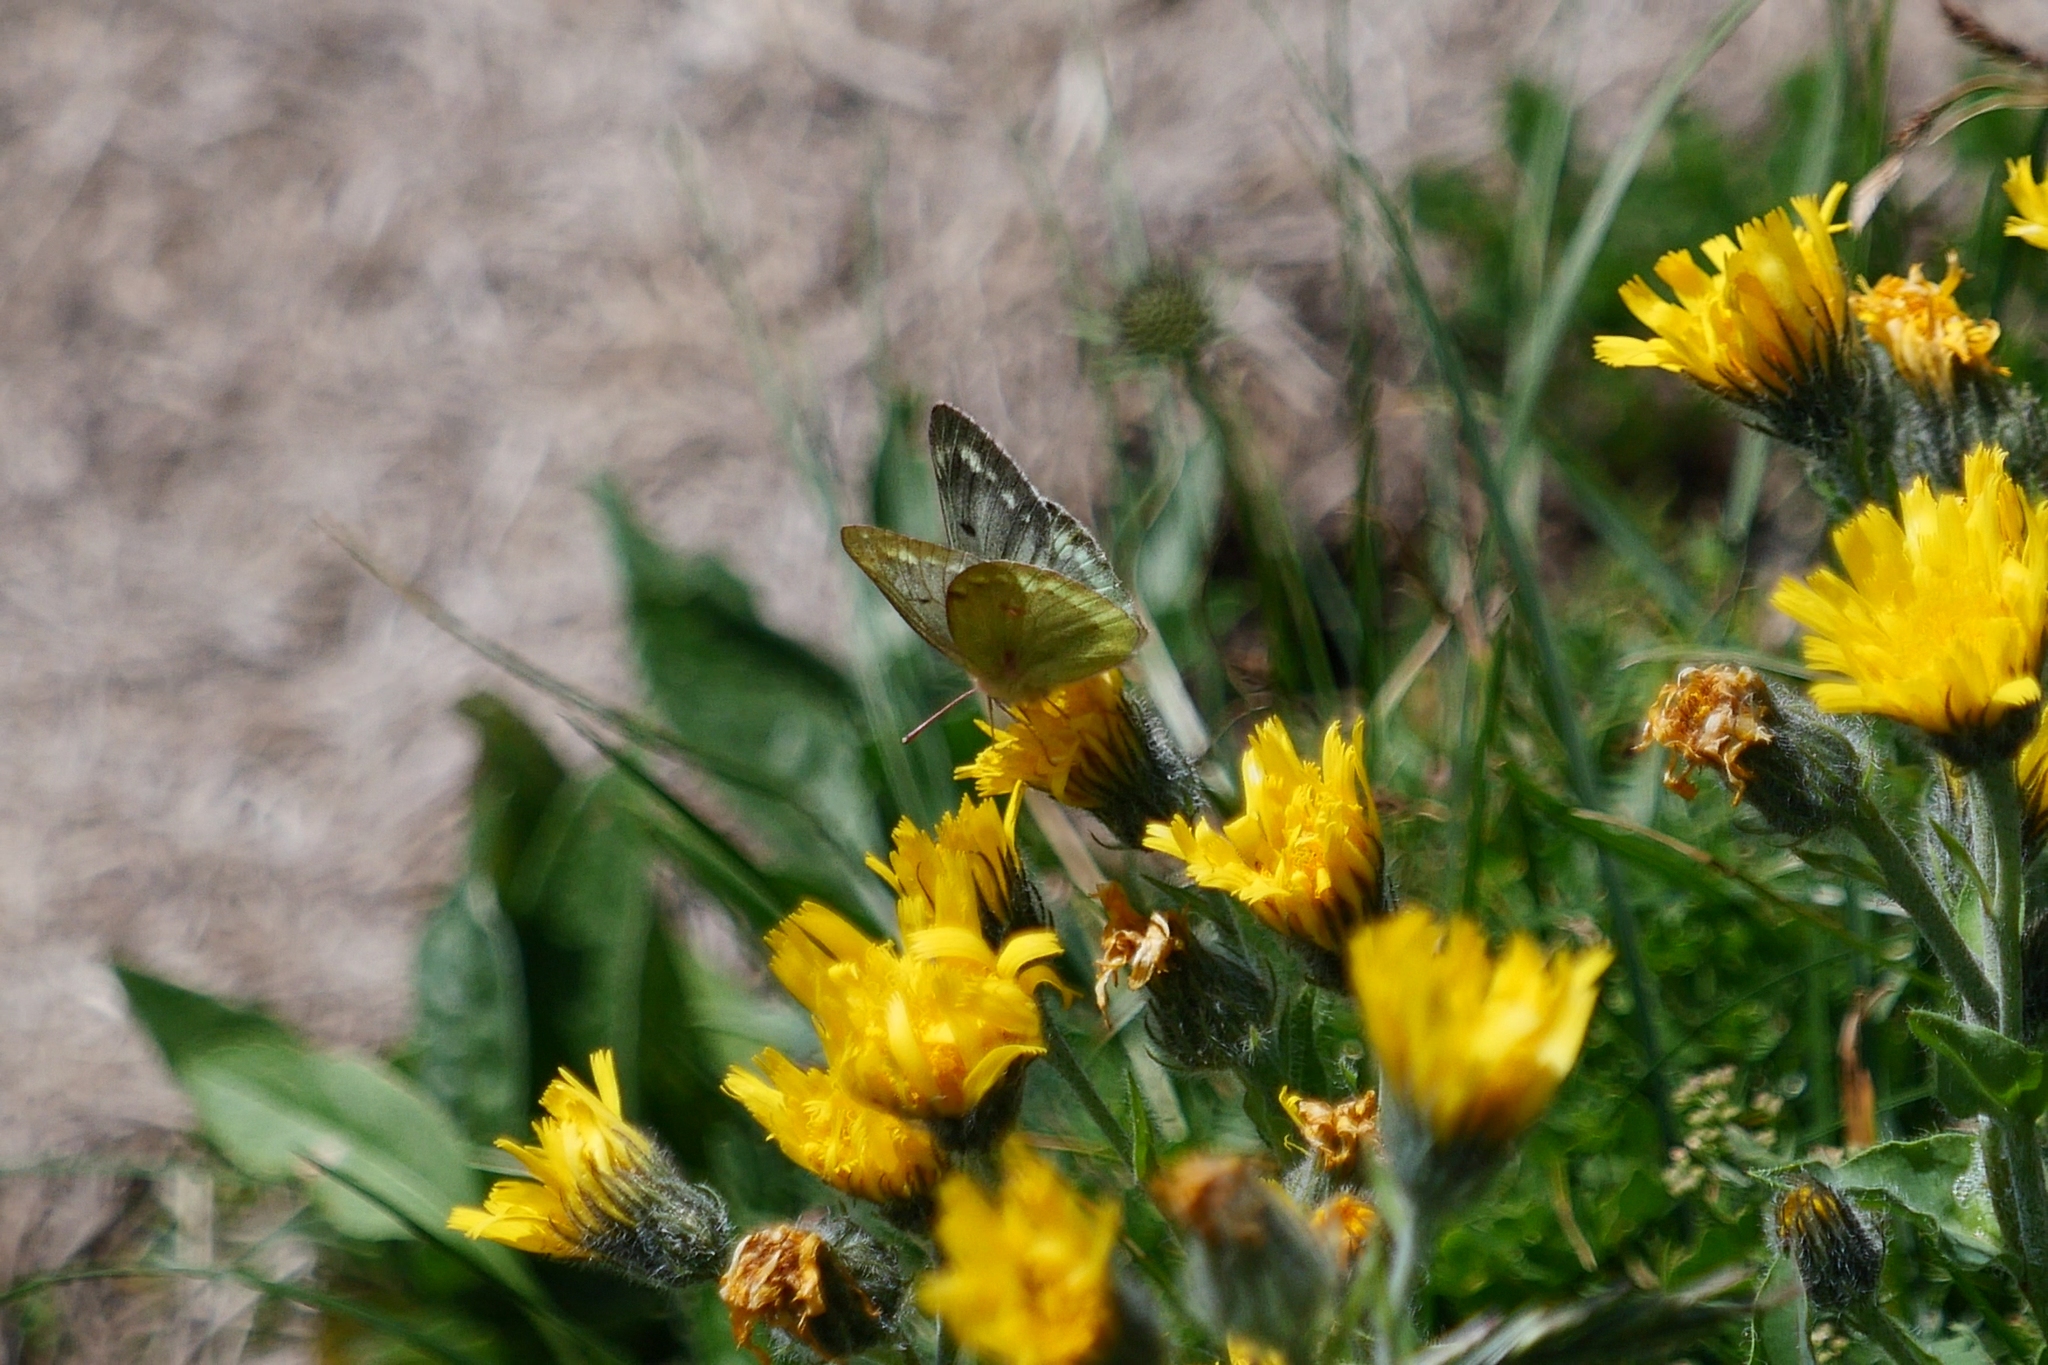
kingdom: Animalia
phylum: Arthropoda
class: Insecta
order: Lepidoptera
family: Pieridae
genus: Colias
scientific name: Colias phicomone
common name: Mountain clouded yellow
